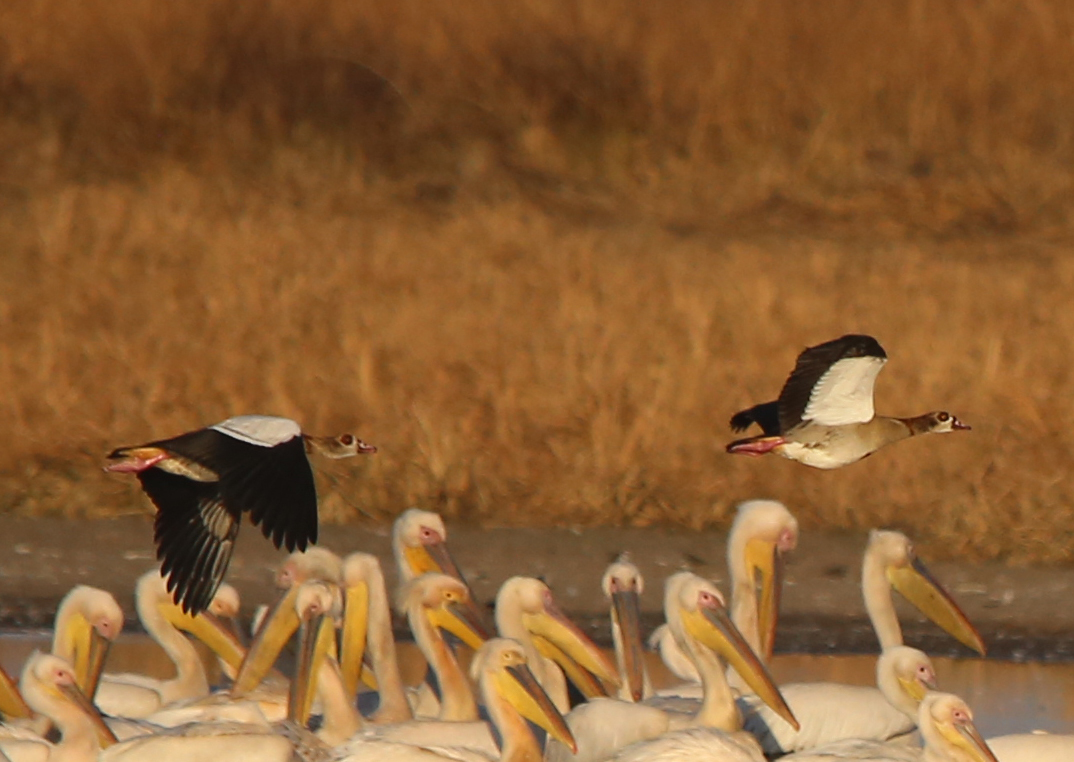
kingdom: Animalia
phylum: Chordata
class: Aves
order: Anseriformes
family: Anatidae
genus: Alopochen
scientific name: Alopochen aegyptiaca
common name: Egyptian goose
